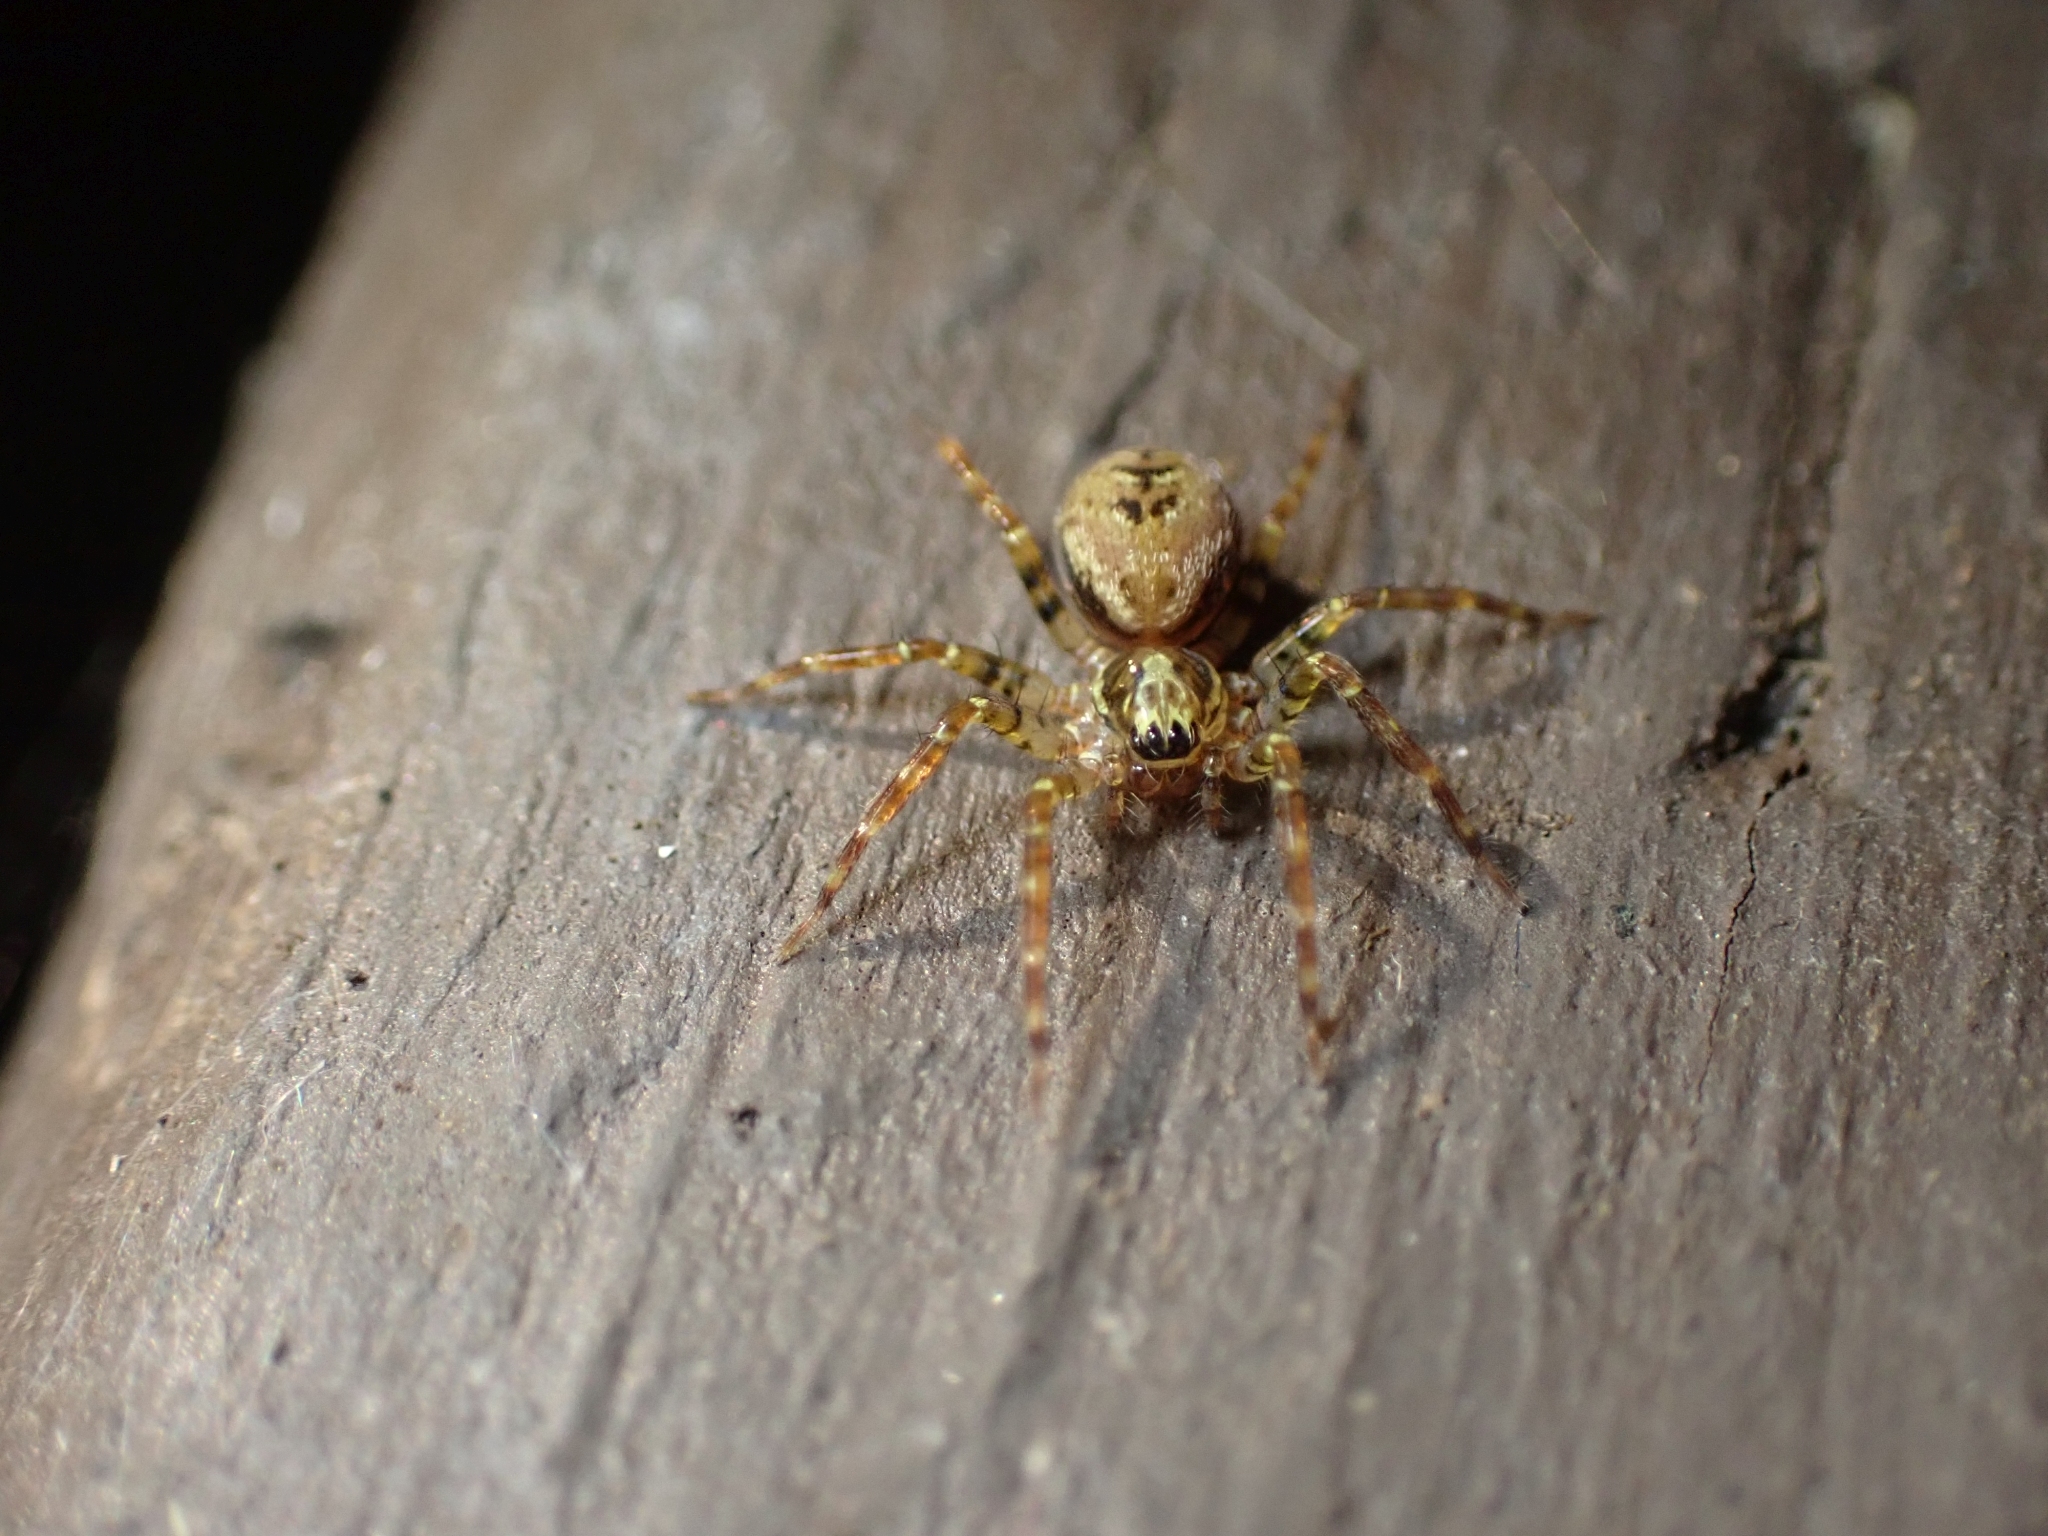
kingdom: Animalia
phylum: Arthropoda
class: Arachnida
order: Araneae
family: Cybaeidae
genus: Dirksia
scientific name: Dirksia cinctipes
